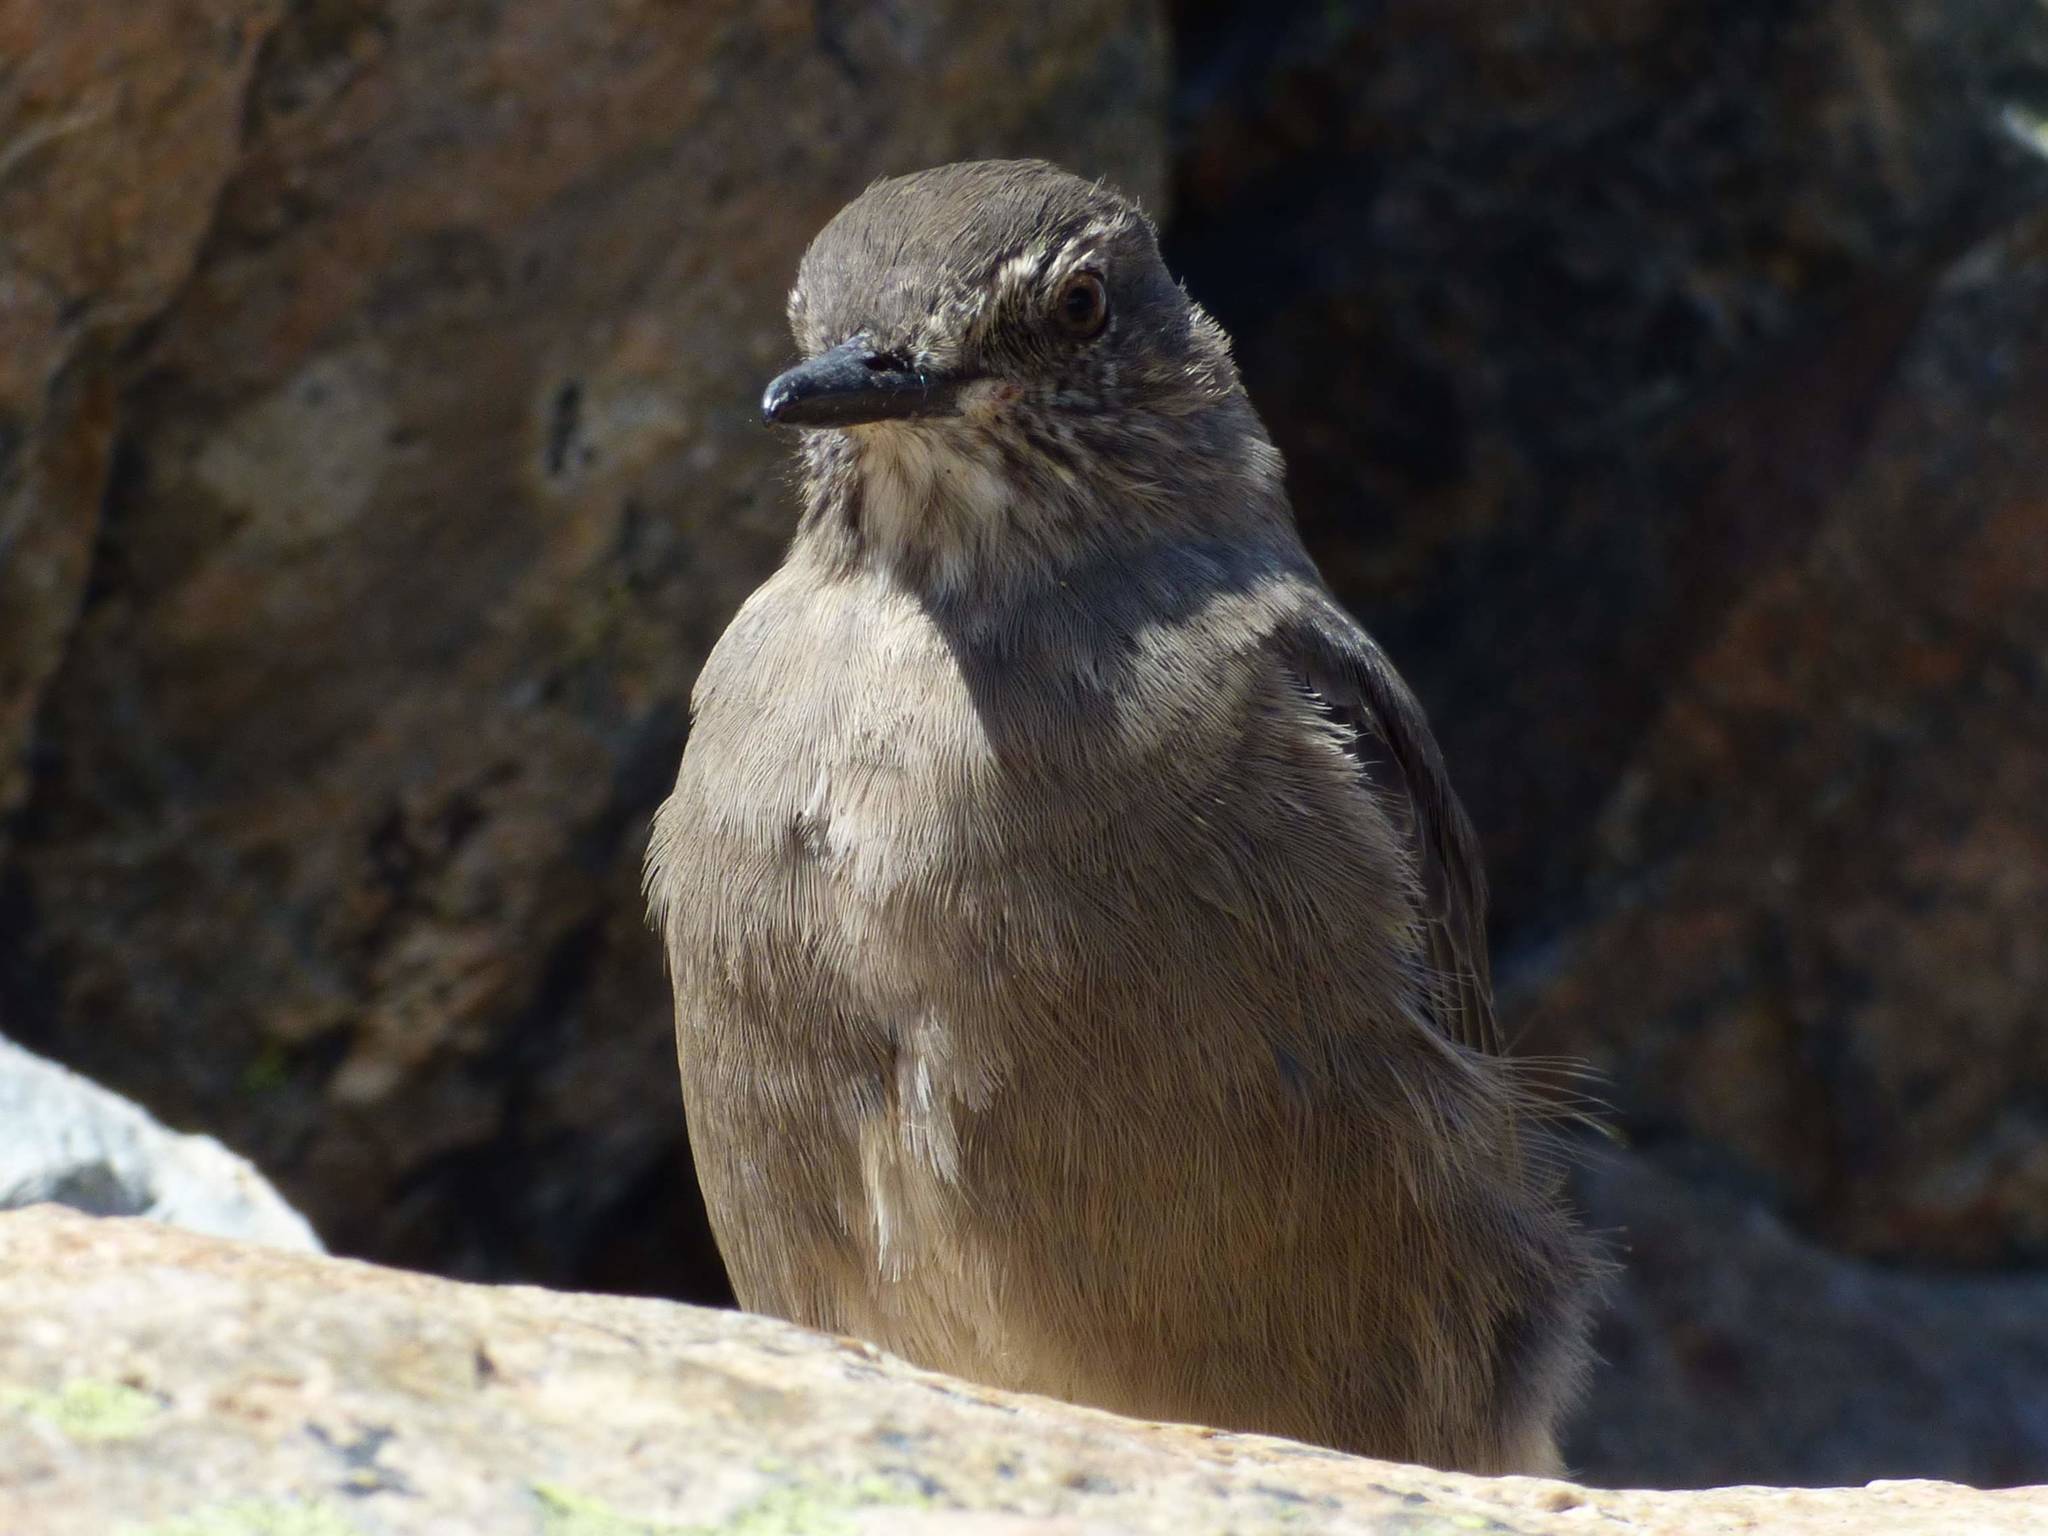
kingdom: Animalia
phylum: Chordata
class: Aves
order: Passeriformes
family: Tyrannidae
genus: Agriornis
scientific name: Agriornis montanus
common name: Black-billed shrike-tyrant
